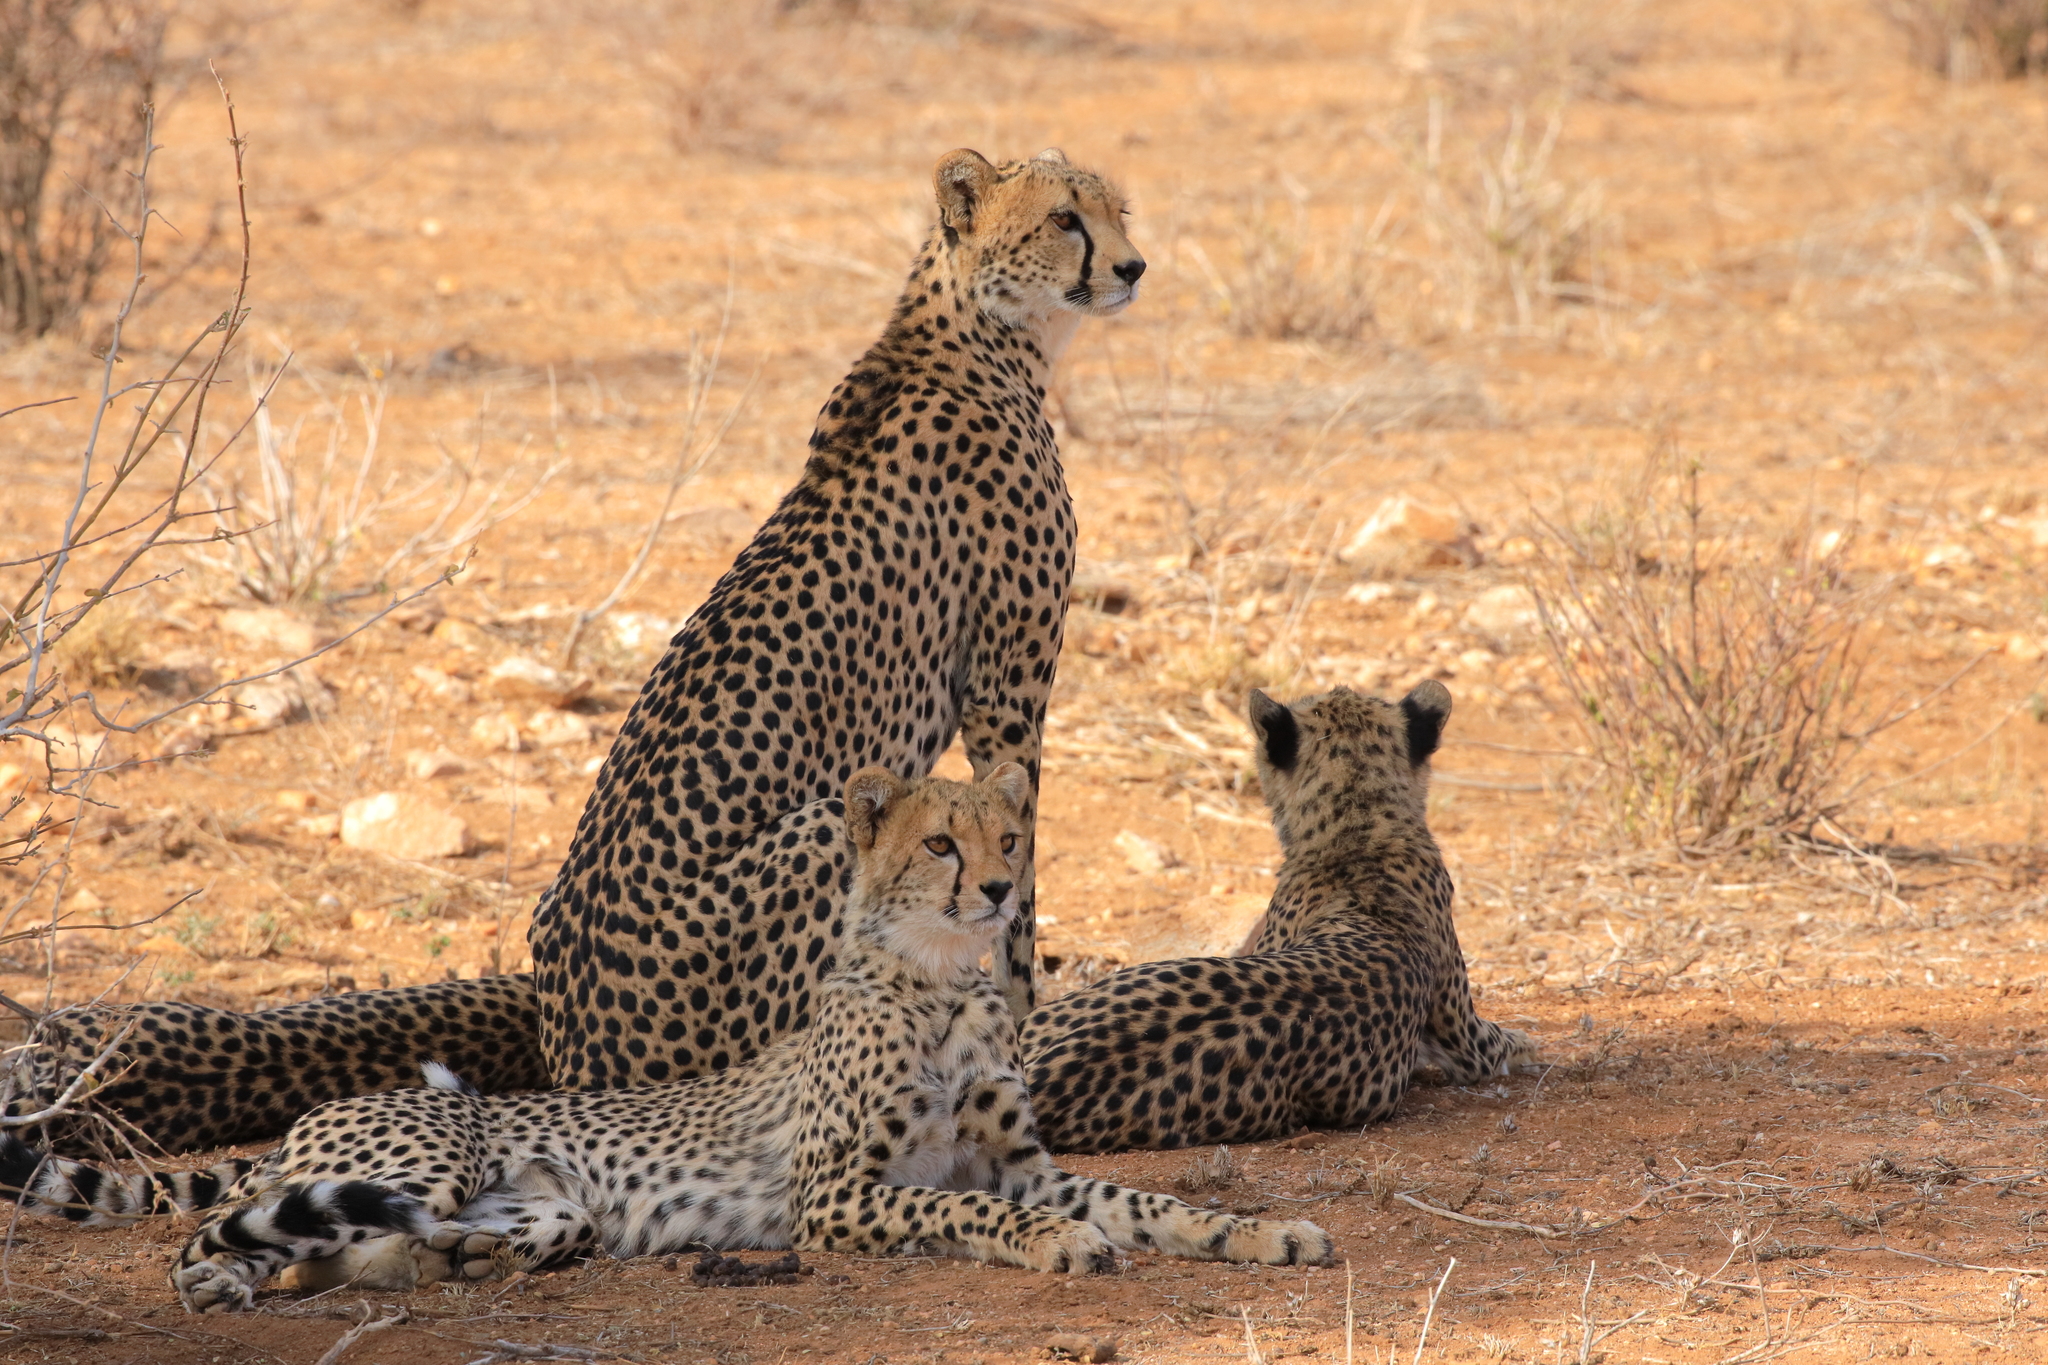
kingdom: Animalia
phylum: Chordata
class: Mammalia
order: Carnivora
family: Felidae
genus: Acinonyx
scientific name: Acinonyx jubatus
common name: Cheetah
